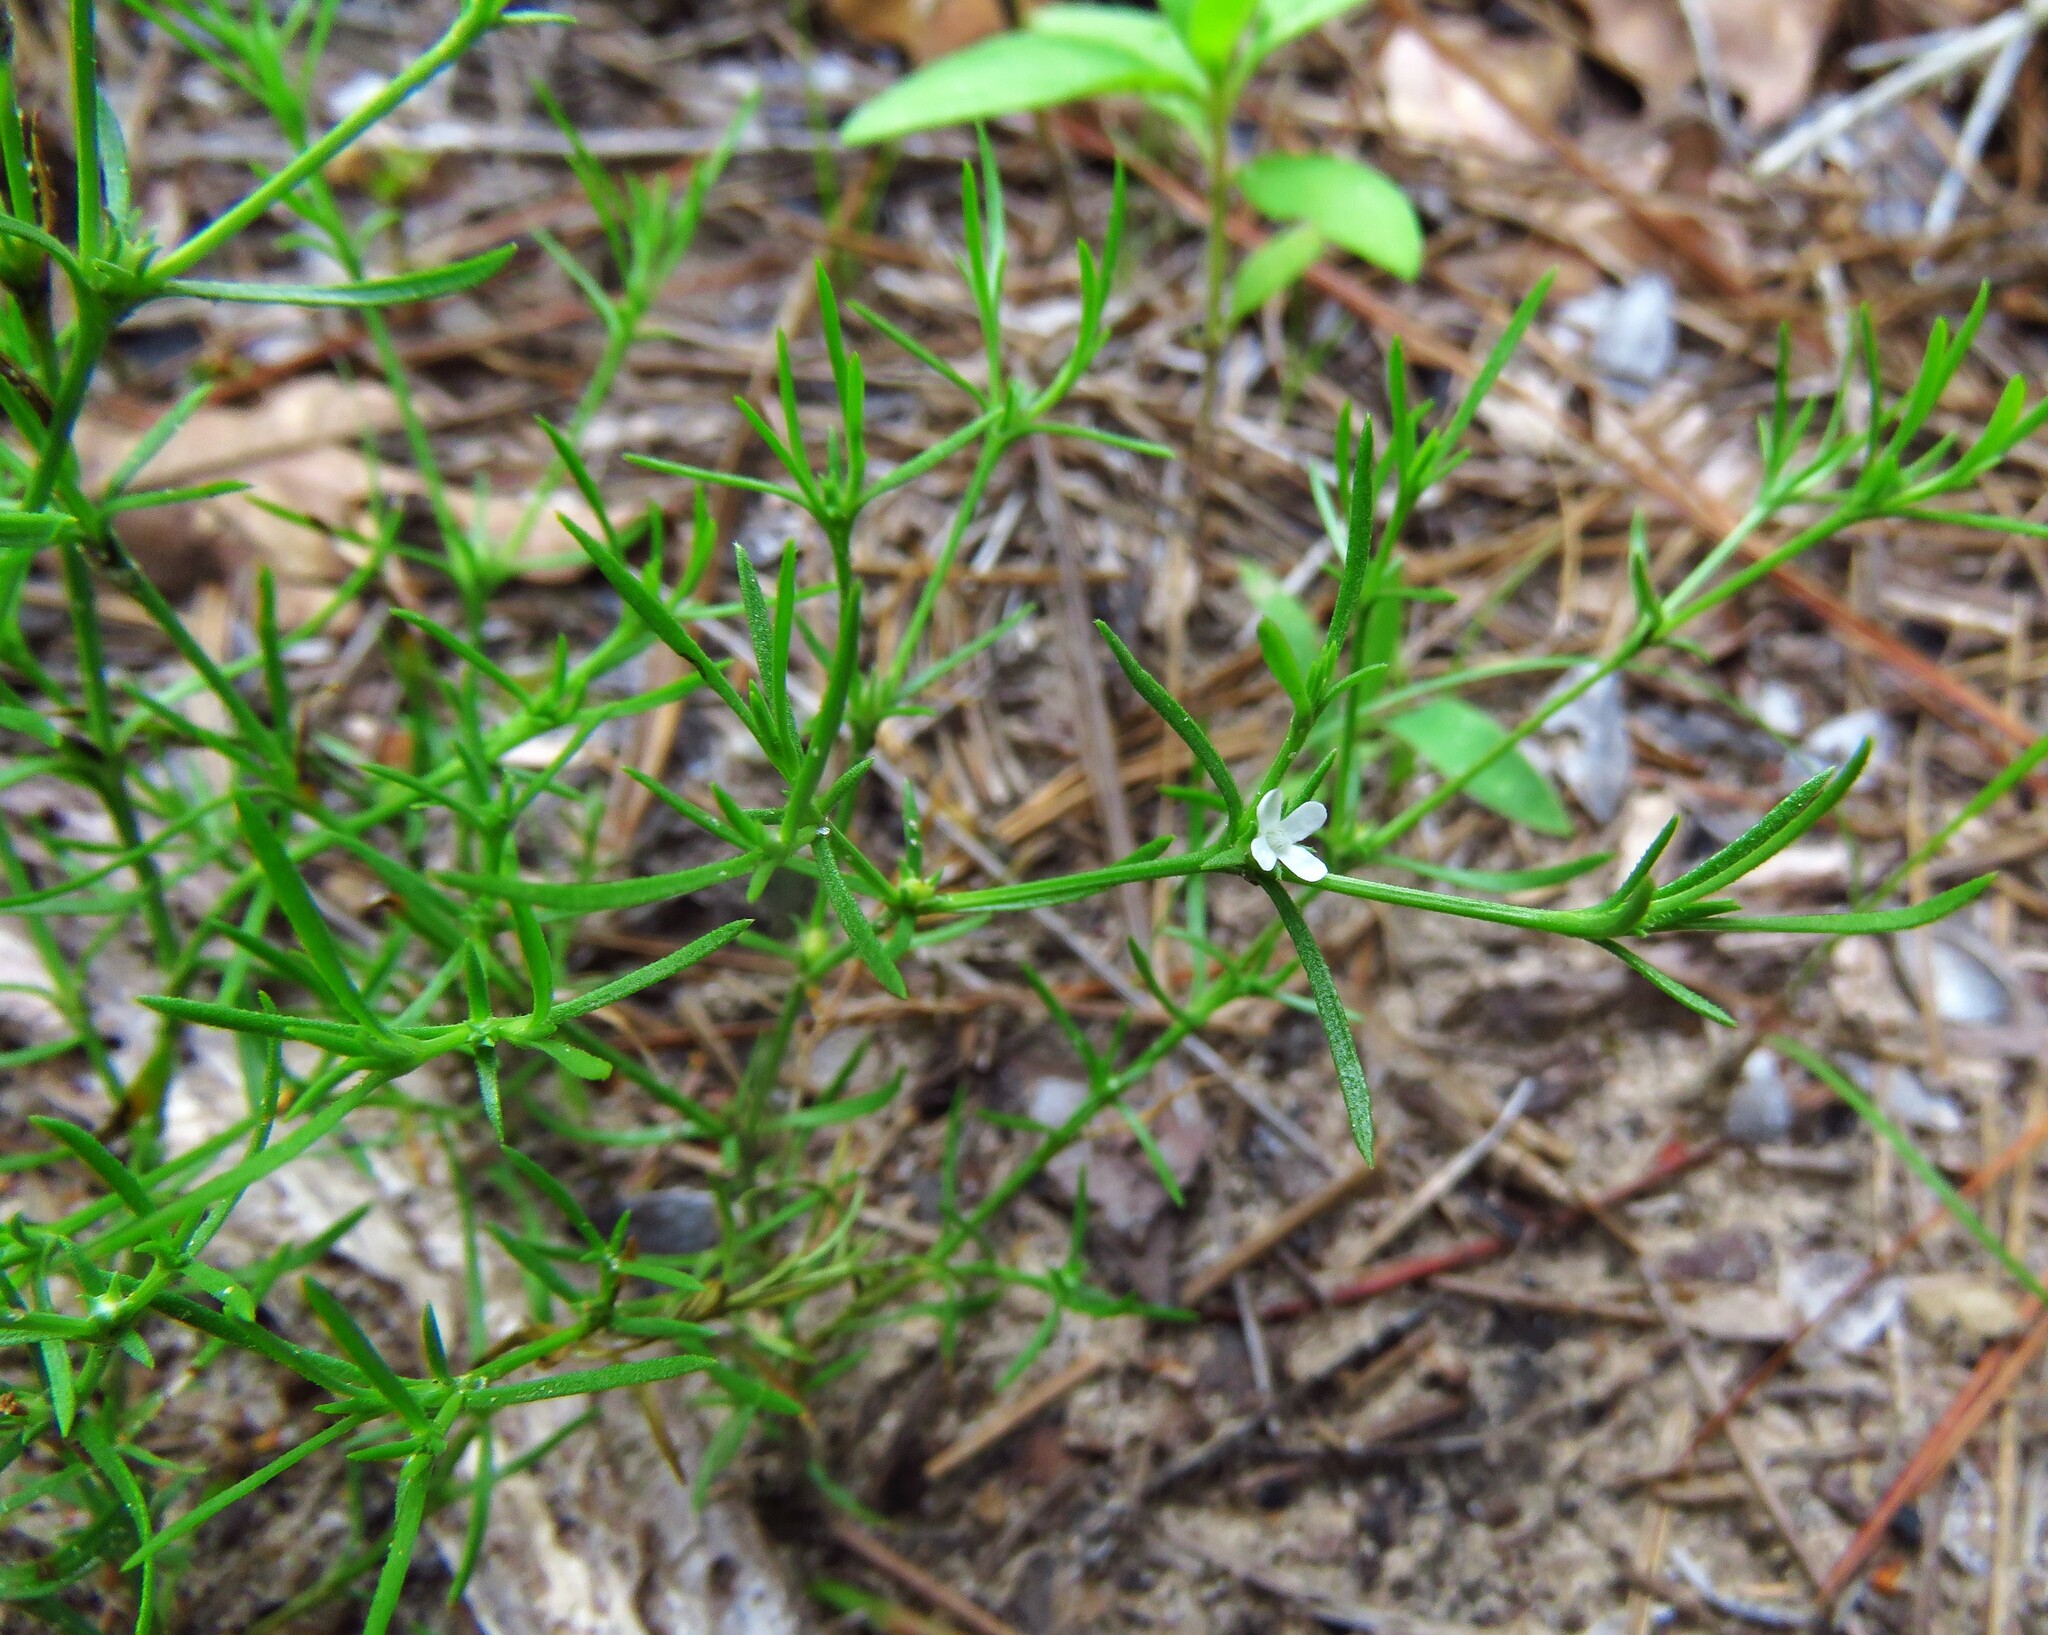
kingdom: Plantae
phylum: Tracheophyta
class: Magnoliopsida
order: Lamiales
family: Tetrachondraceae
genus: Polypremum
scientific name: Polypremum procumbens
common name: Juniper-leaf
